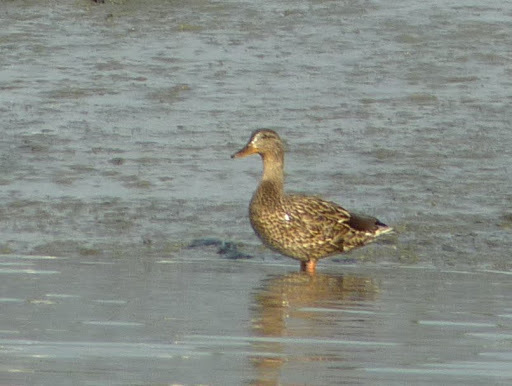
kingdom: Animalia
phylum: Chordata
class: Aves
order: Anseriformes
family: Anatidae
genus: Anas
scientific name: Anas platyrhynchos
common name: Mallard
